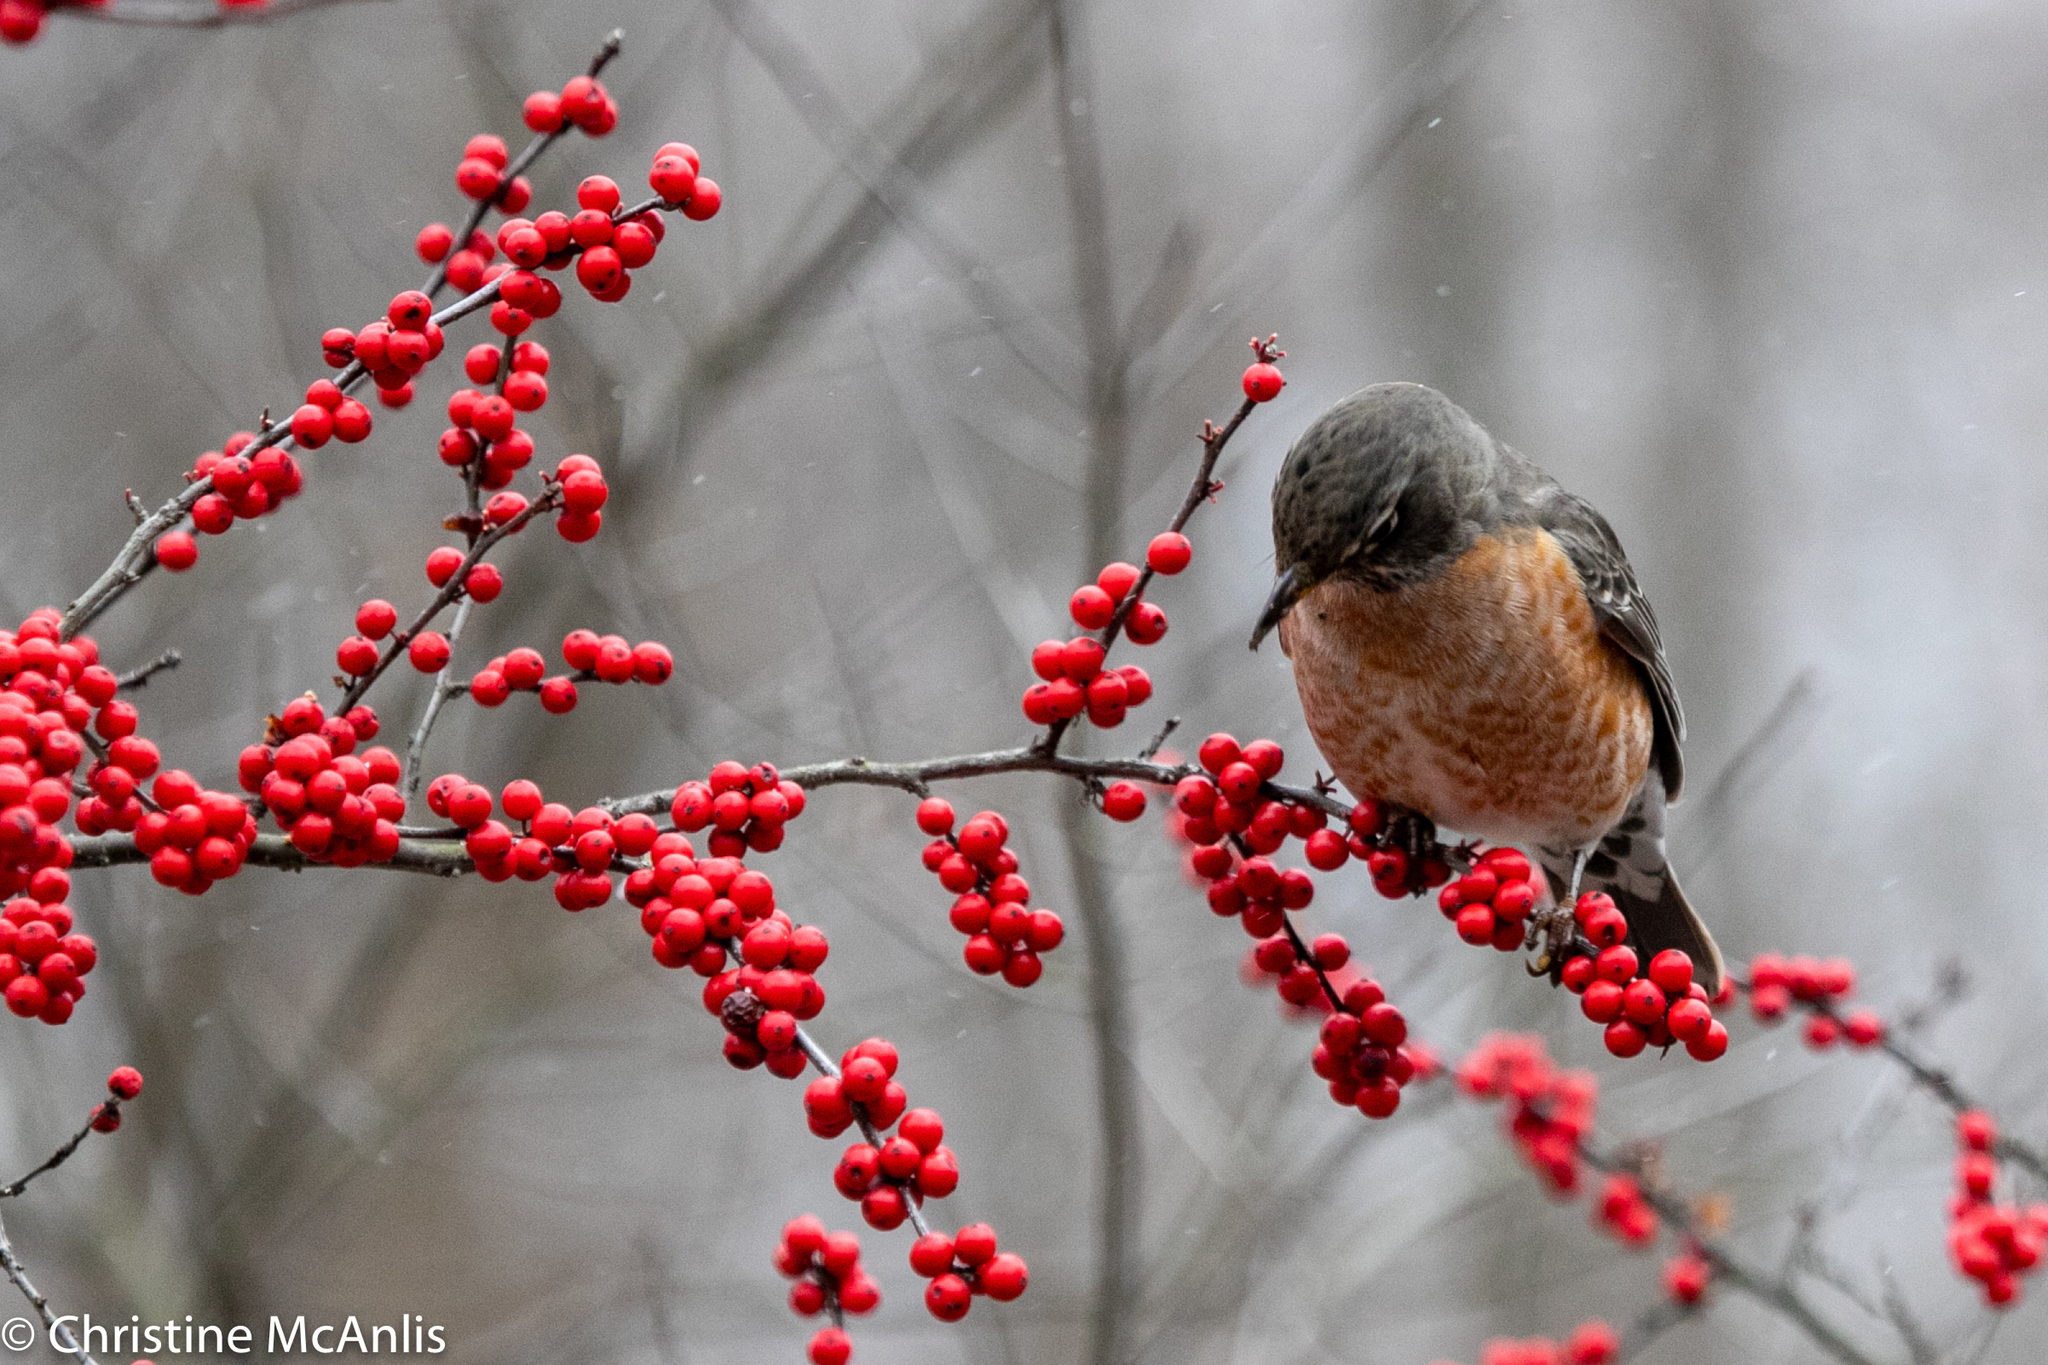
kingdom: Animalia
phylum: Chordata
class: Aves
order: Passeriformes
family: Turdidae
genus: Turdus
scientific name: Turdus migratorius
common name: American robin
